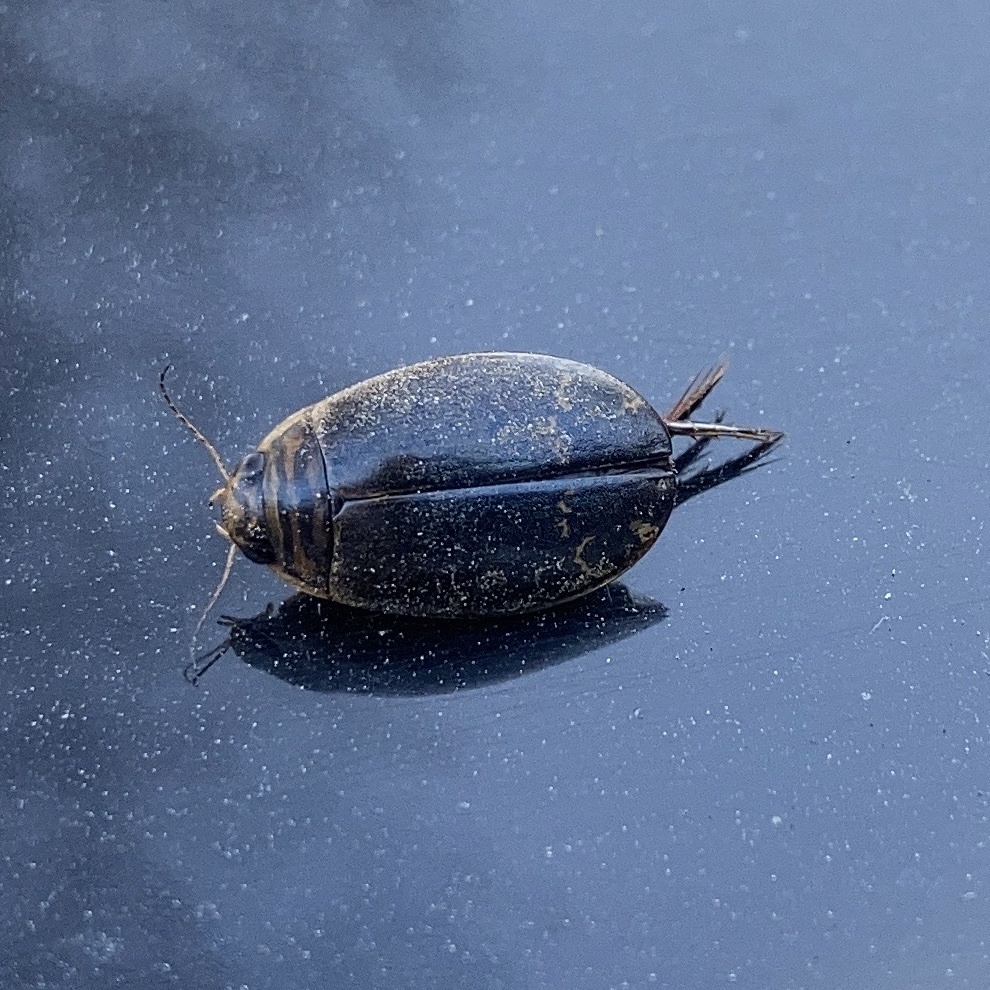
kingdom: Animalia
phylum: Arthropoda
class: Insecta
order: Coleoptera
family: Dytiscidae
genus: Acilius
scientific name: Acilius semisulcatus
